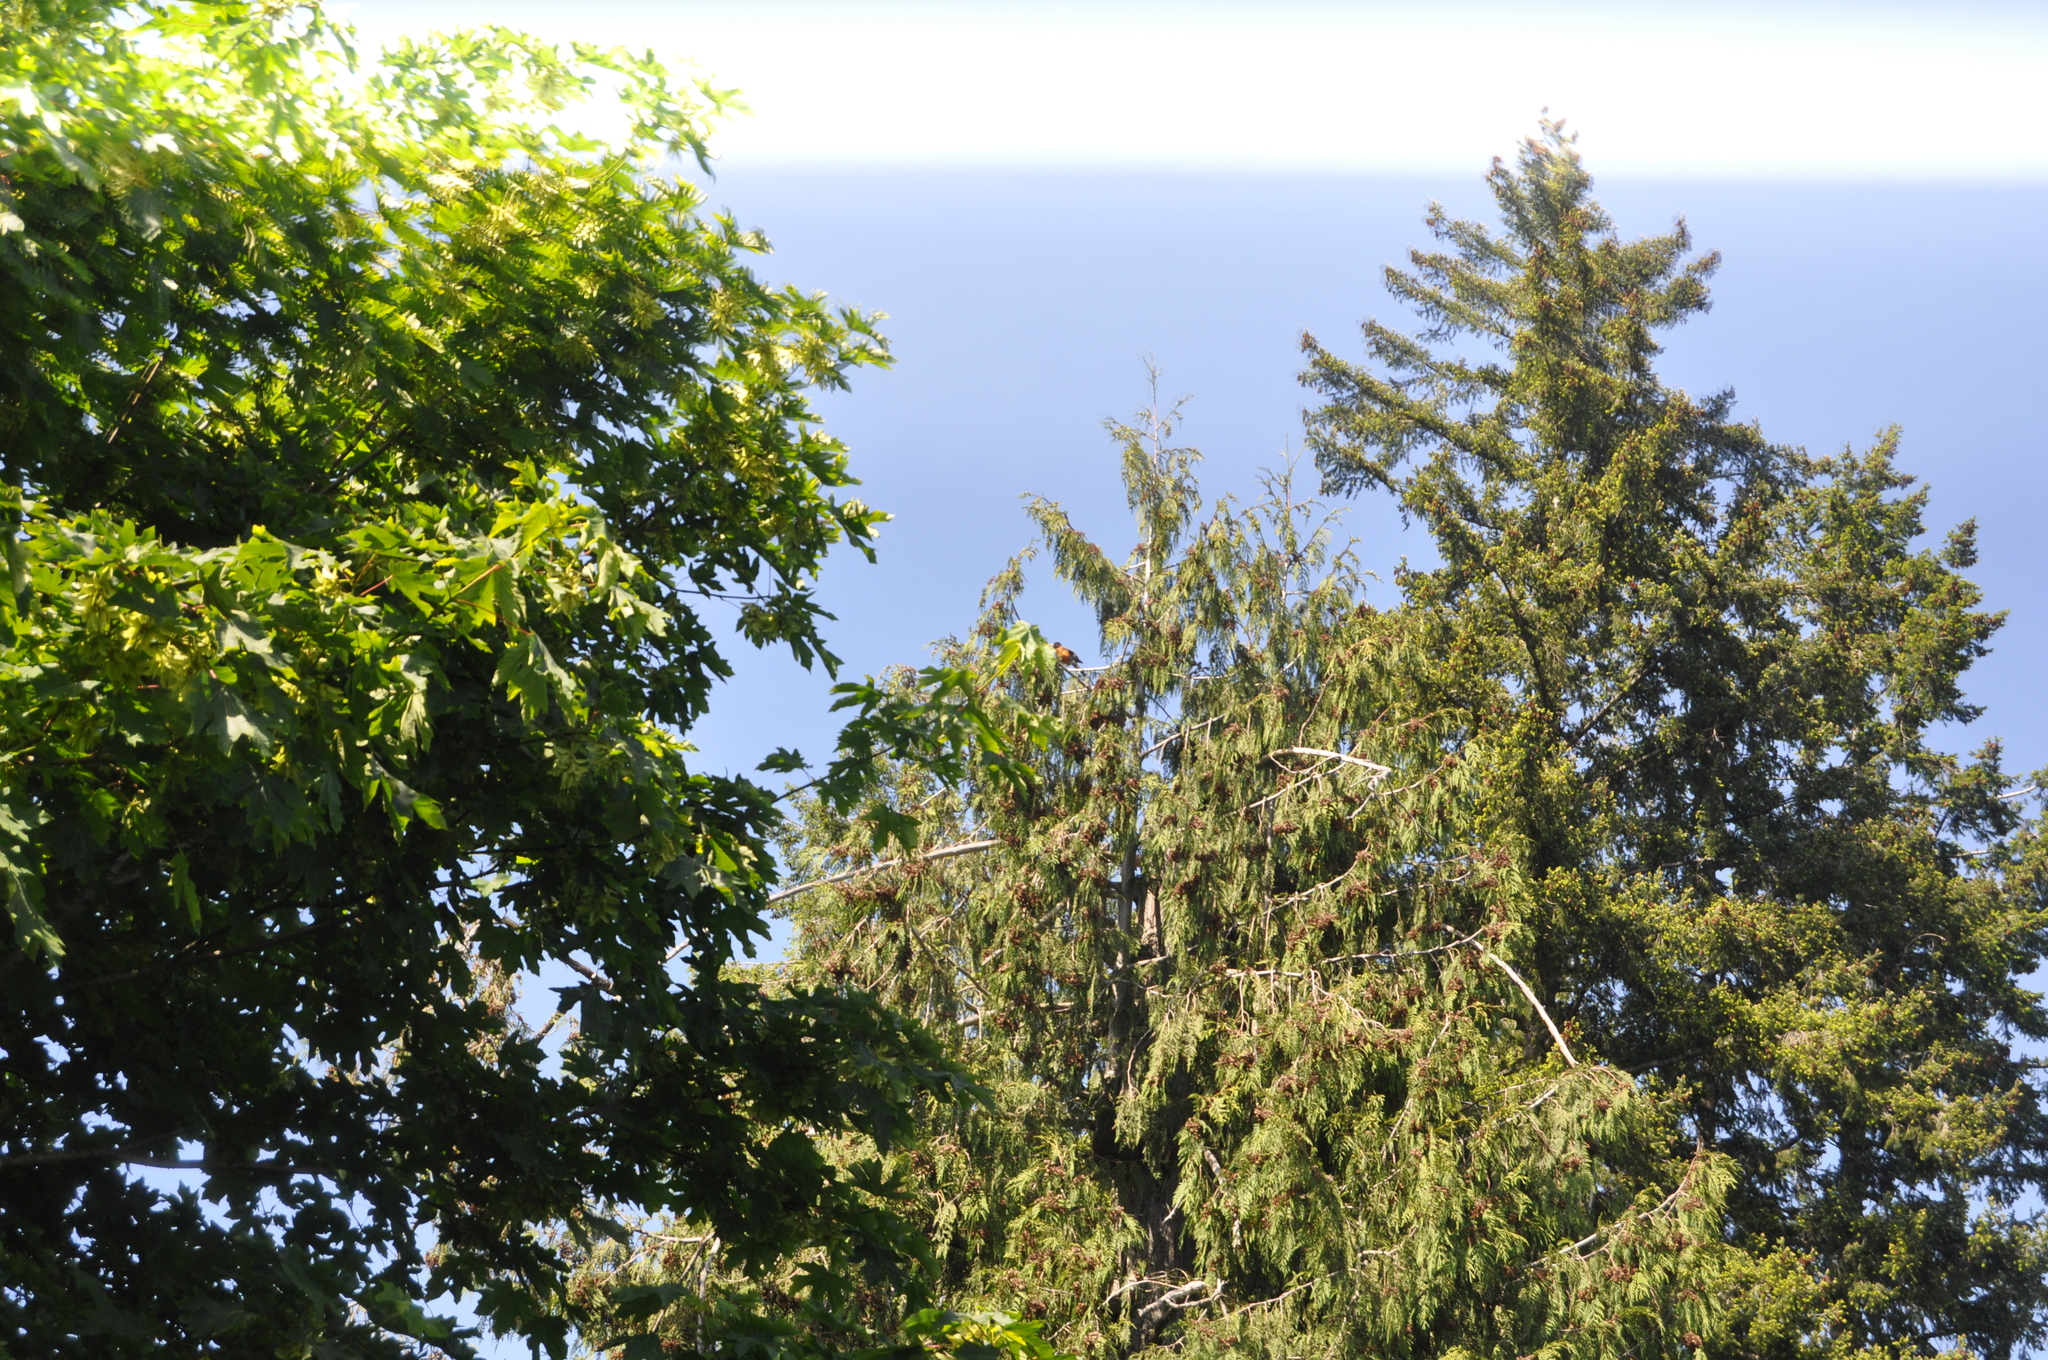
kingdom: Animalia
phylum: Chordata
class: Aves
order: Passeriformes
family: Turdidae
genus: Turdus
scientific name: Turdus migratorius
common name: American robin
